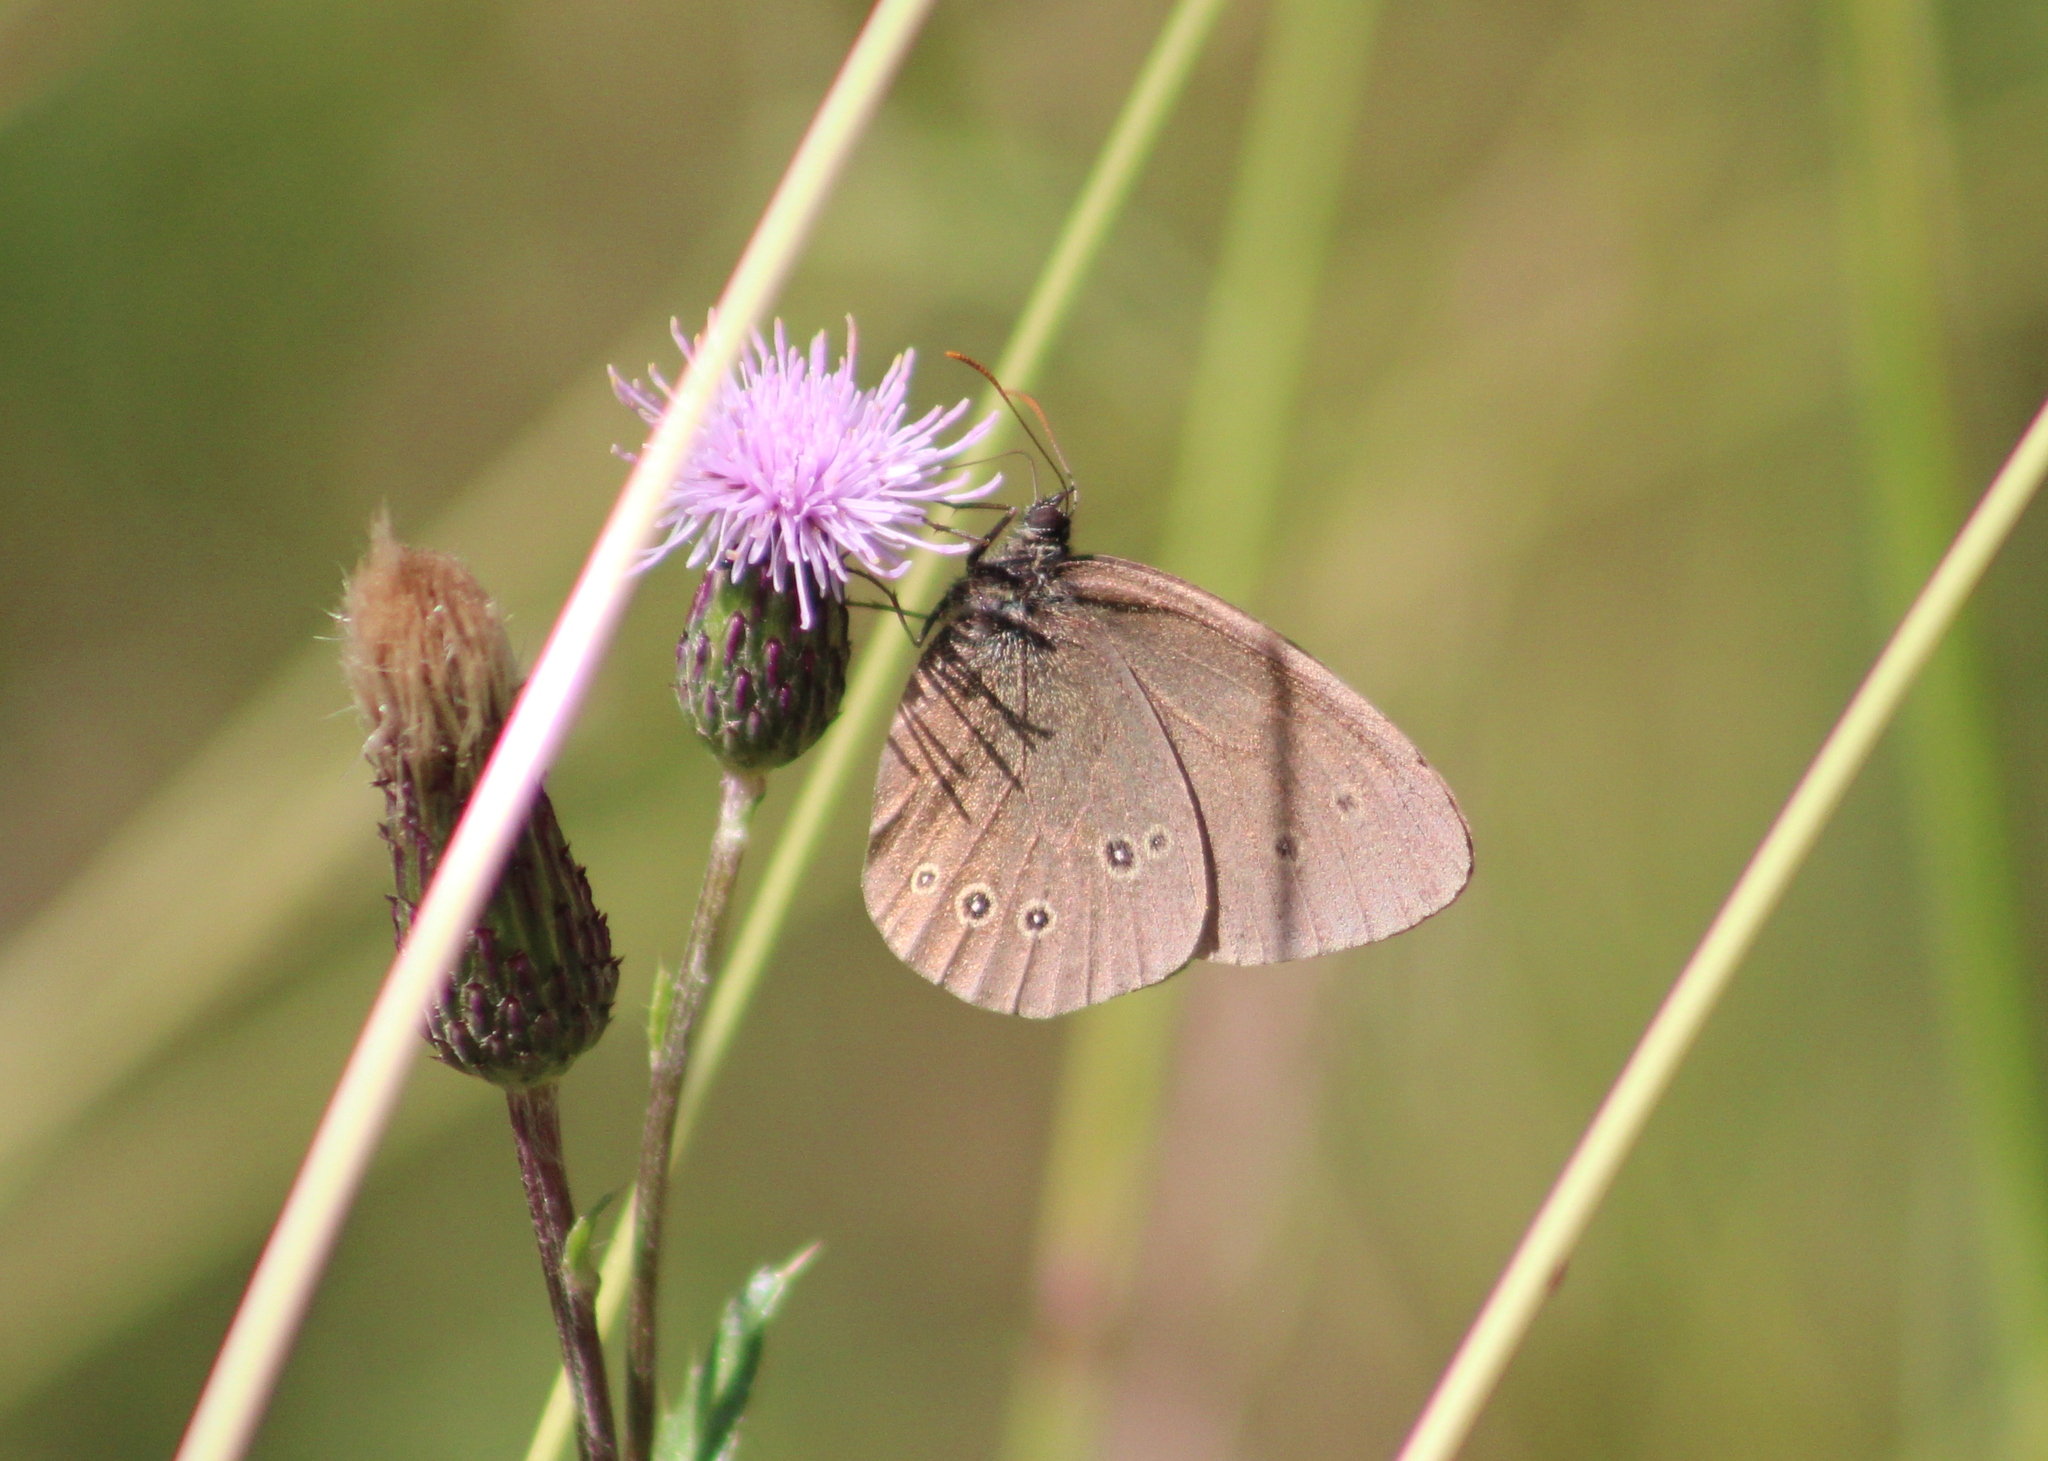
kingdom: Animalia
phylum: Arthropoda
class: Insecta
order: Lepidoptera
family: Nymphalidae
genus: Aphantopus
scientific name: Aphantopus hyperantus
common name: Ringlet
